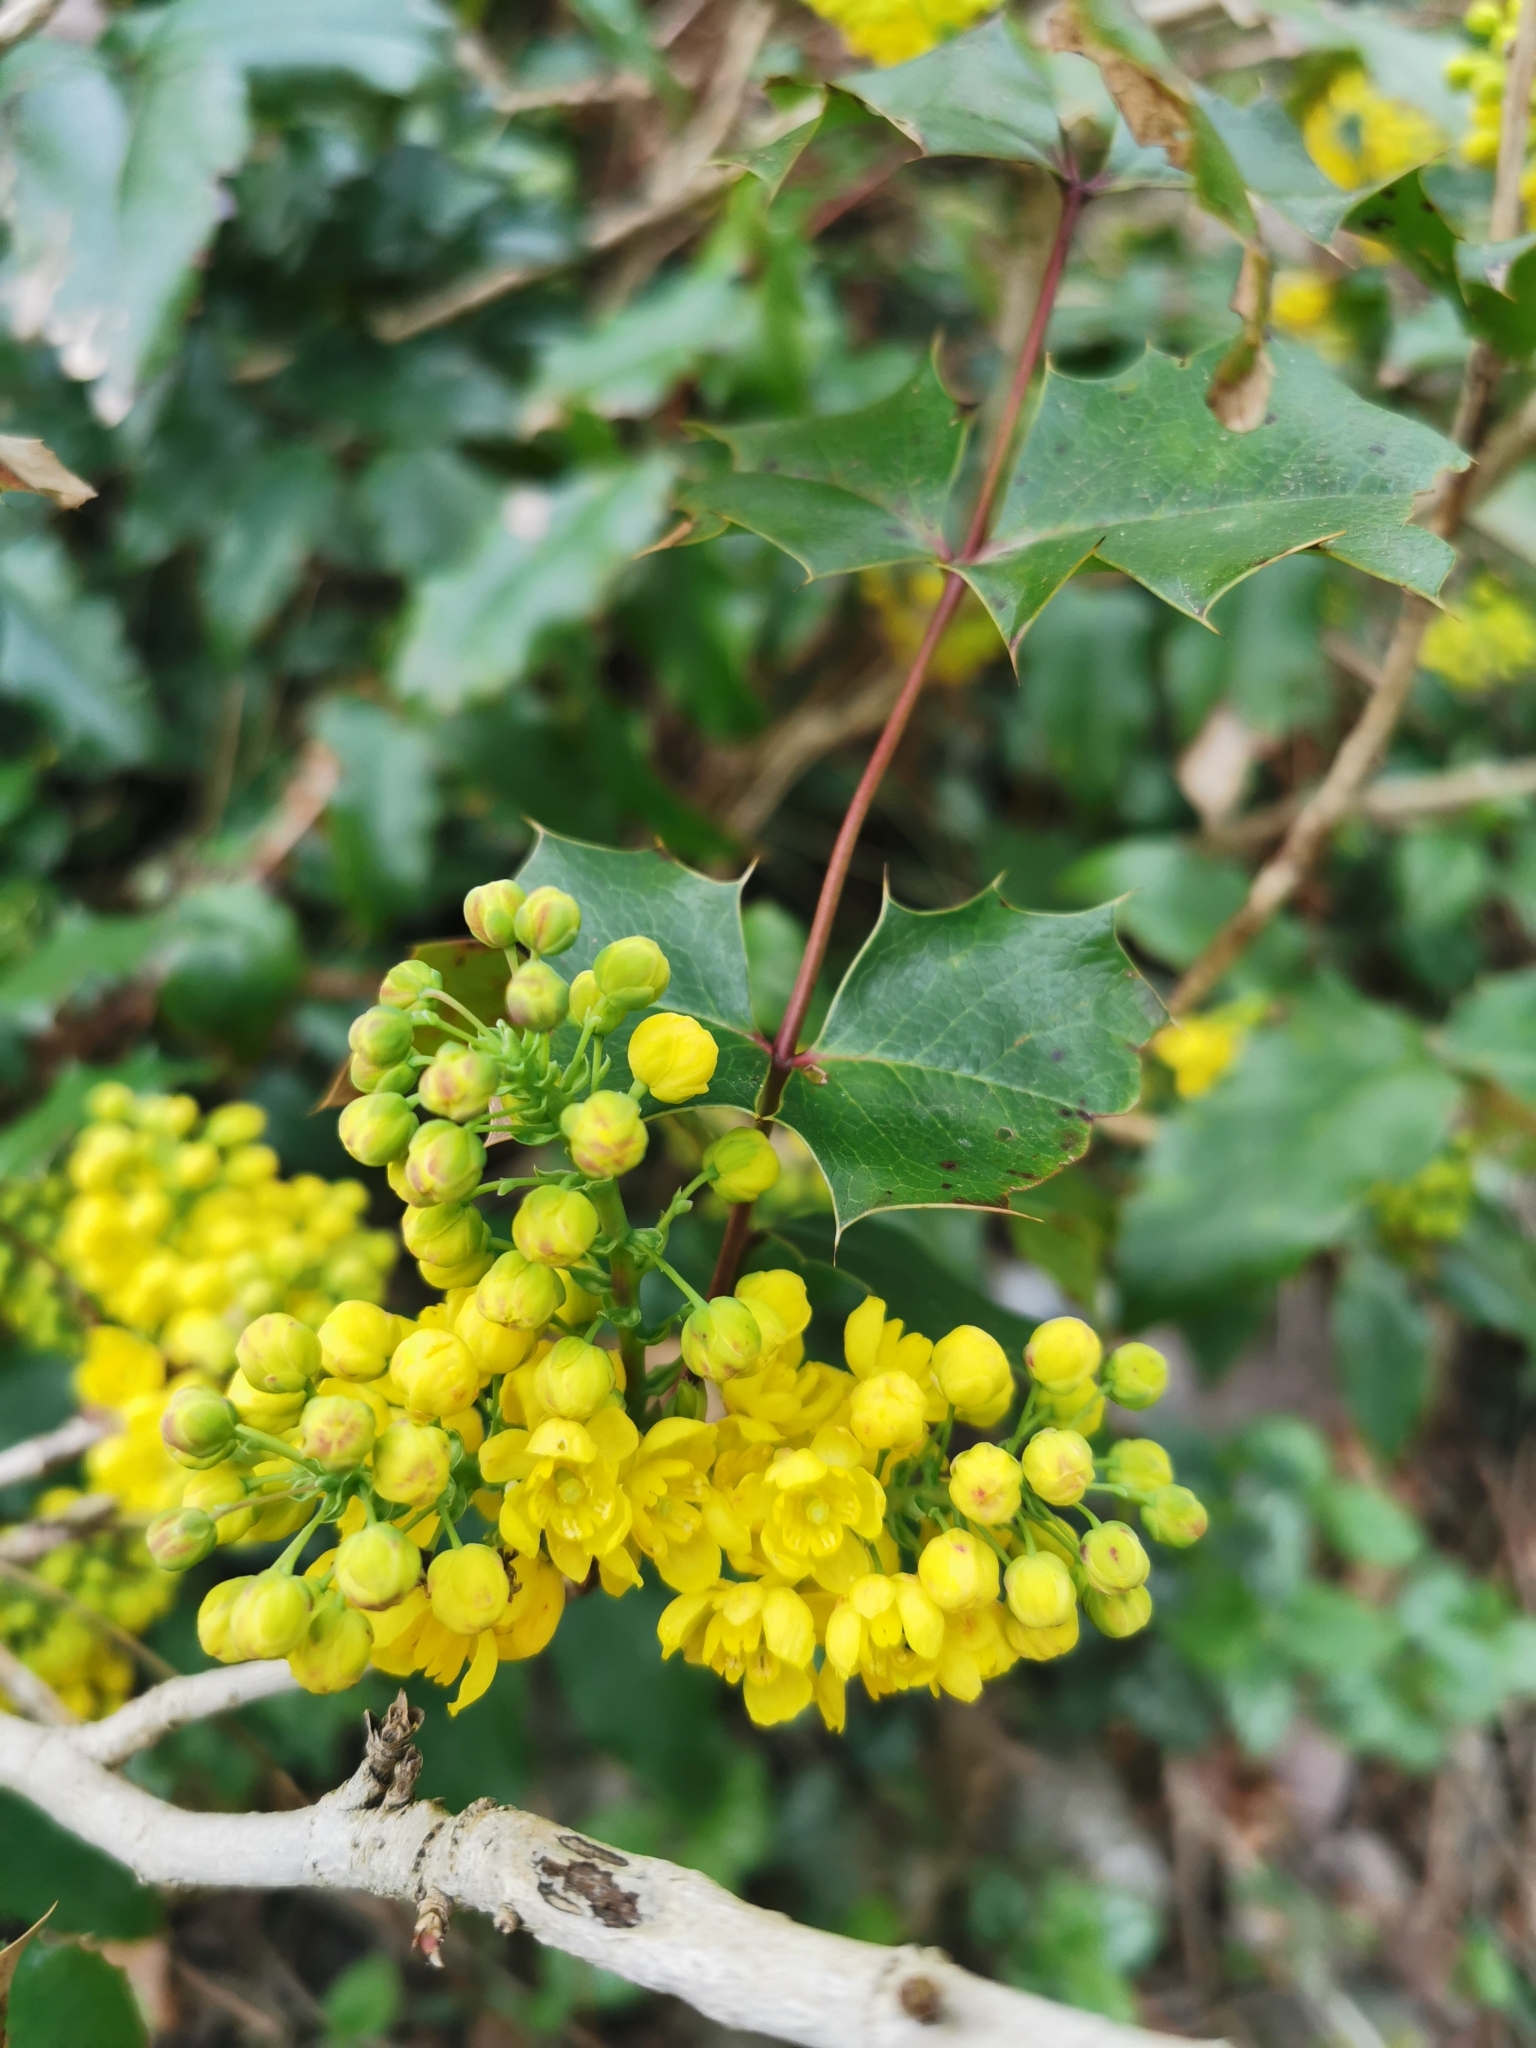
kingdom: Plantae
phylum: Tracheophyta
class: Magnoliopsida
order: Ranunculales
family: Berberidaceae
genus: Mahonia
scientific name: Mahonia aquifolium
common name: Oregon-grape
